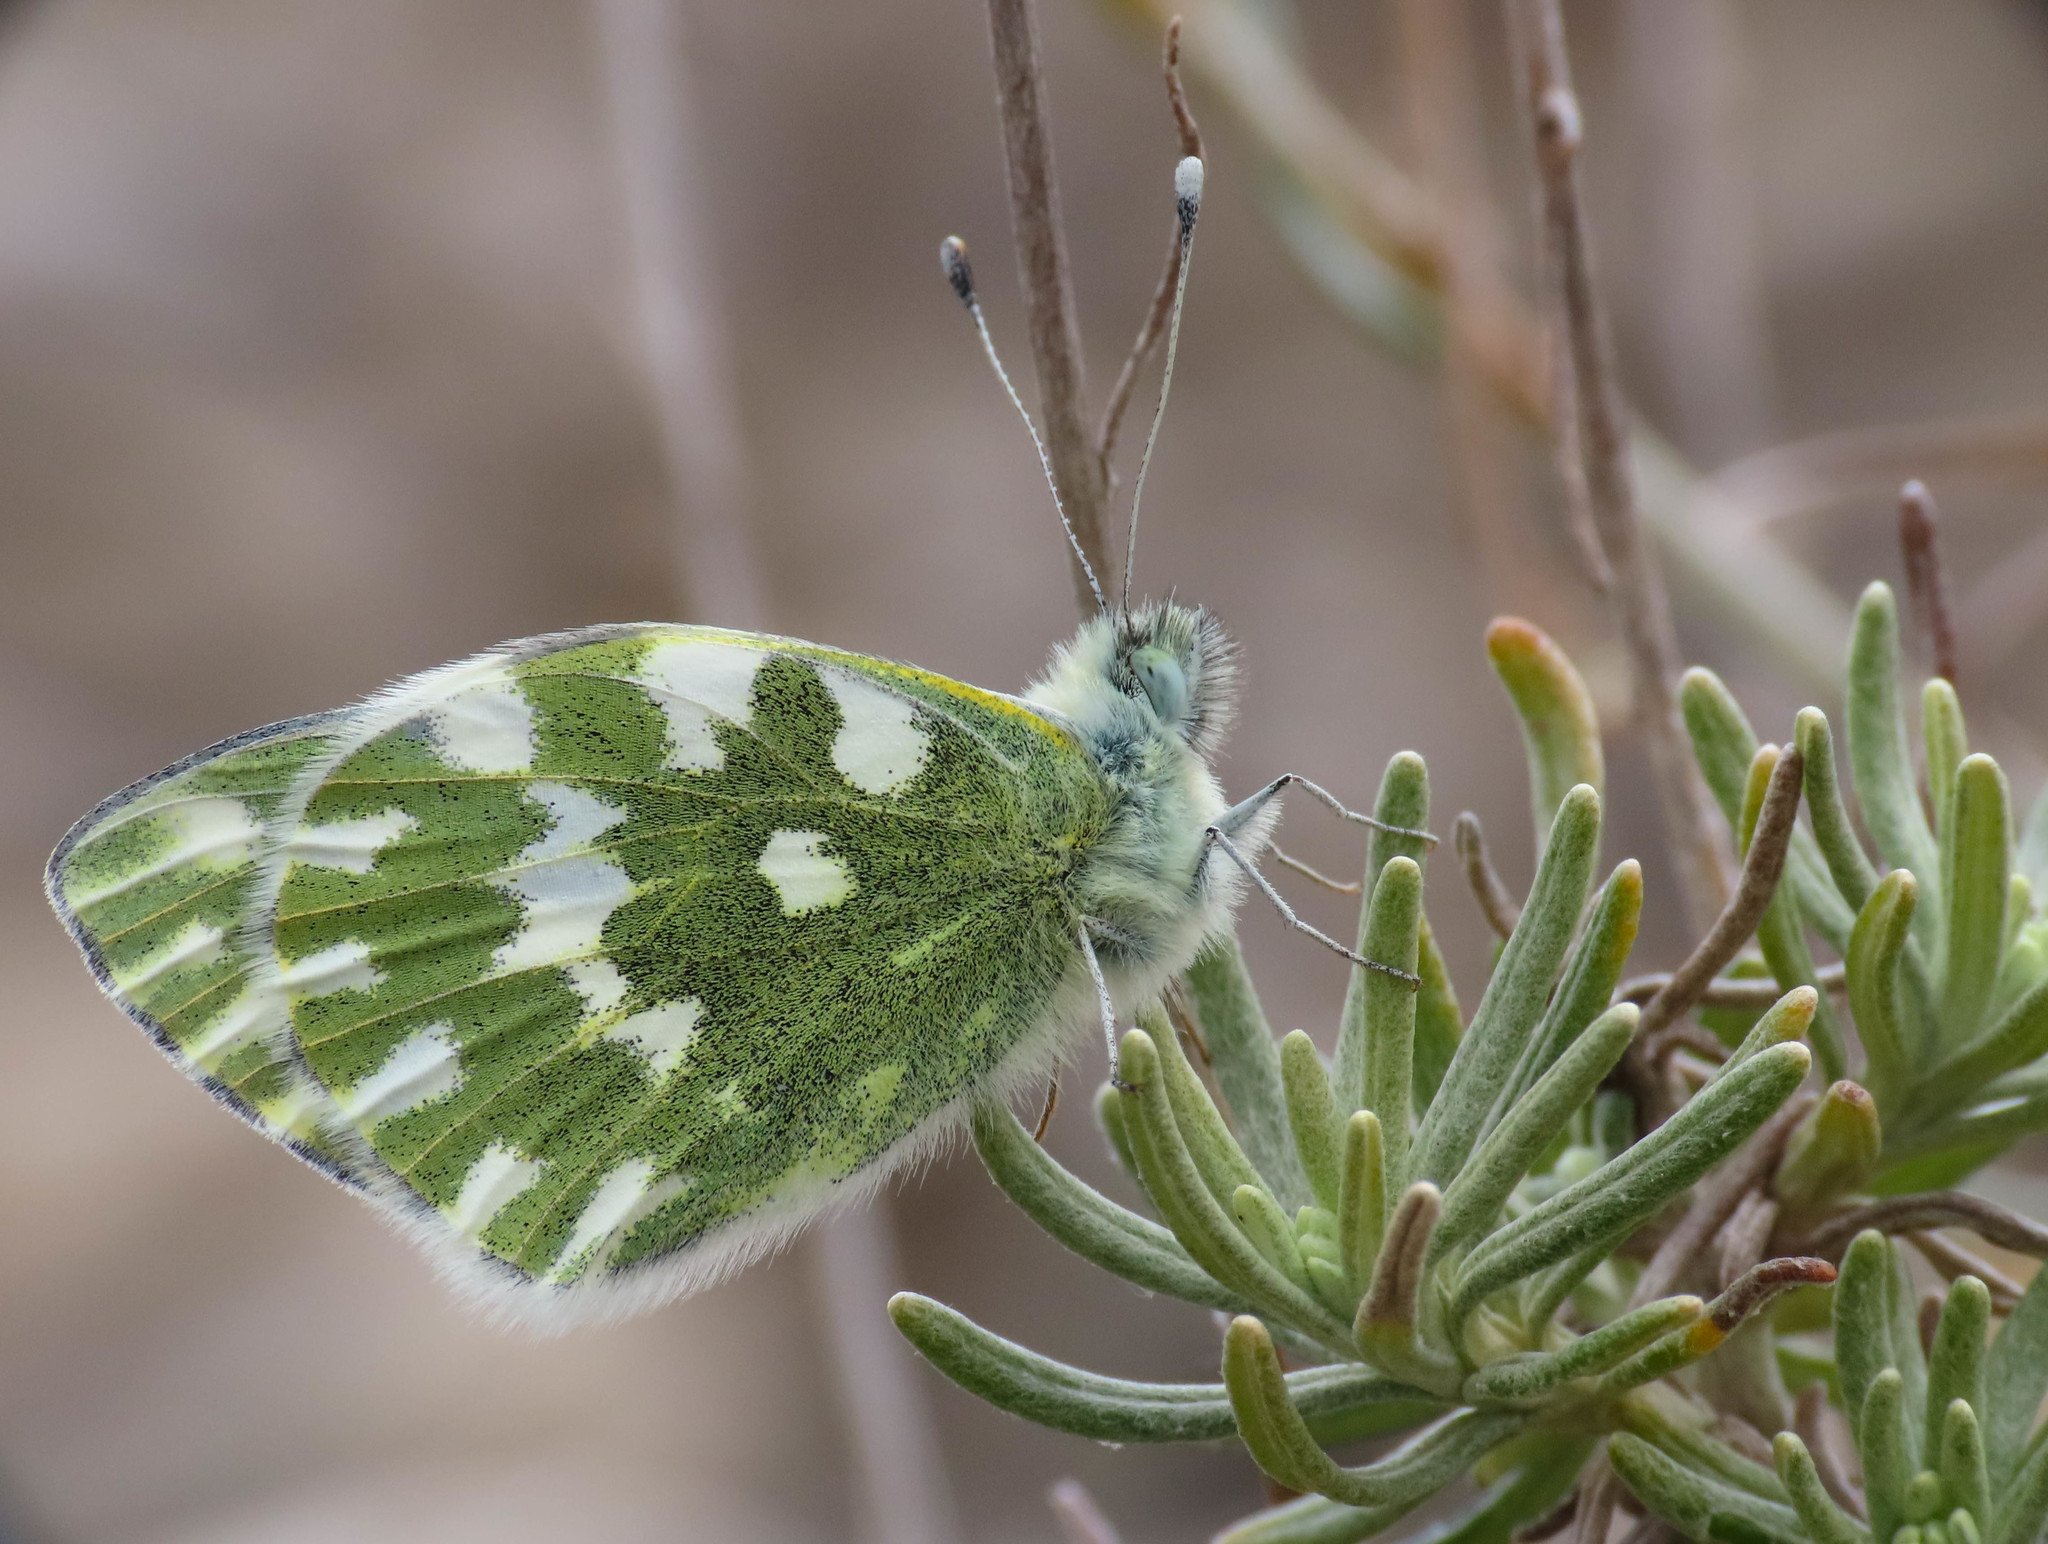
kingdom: Animalia
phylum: Arthropoda
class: Insecta
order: Lepidoptera
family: Pieridae
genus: Pontia
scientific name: Pontia edusa
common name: Eastern bath white
